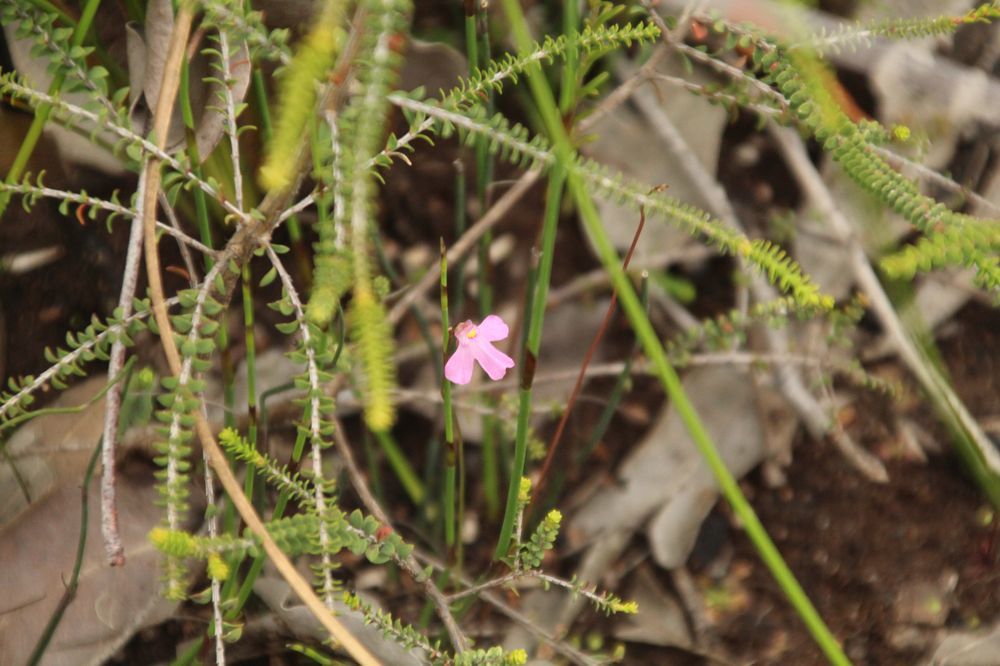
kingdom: Plantae
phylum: Tracheophyta
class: Magnoliopsida
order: Lamiales
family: Lentibulariaceae
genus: Utricularia
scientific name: Utricularia multifida
